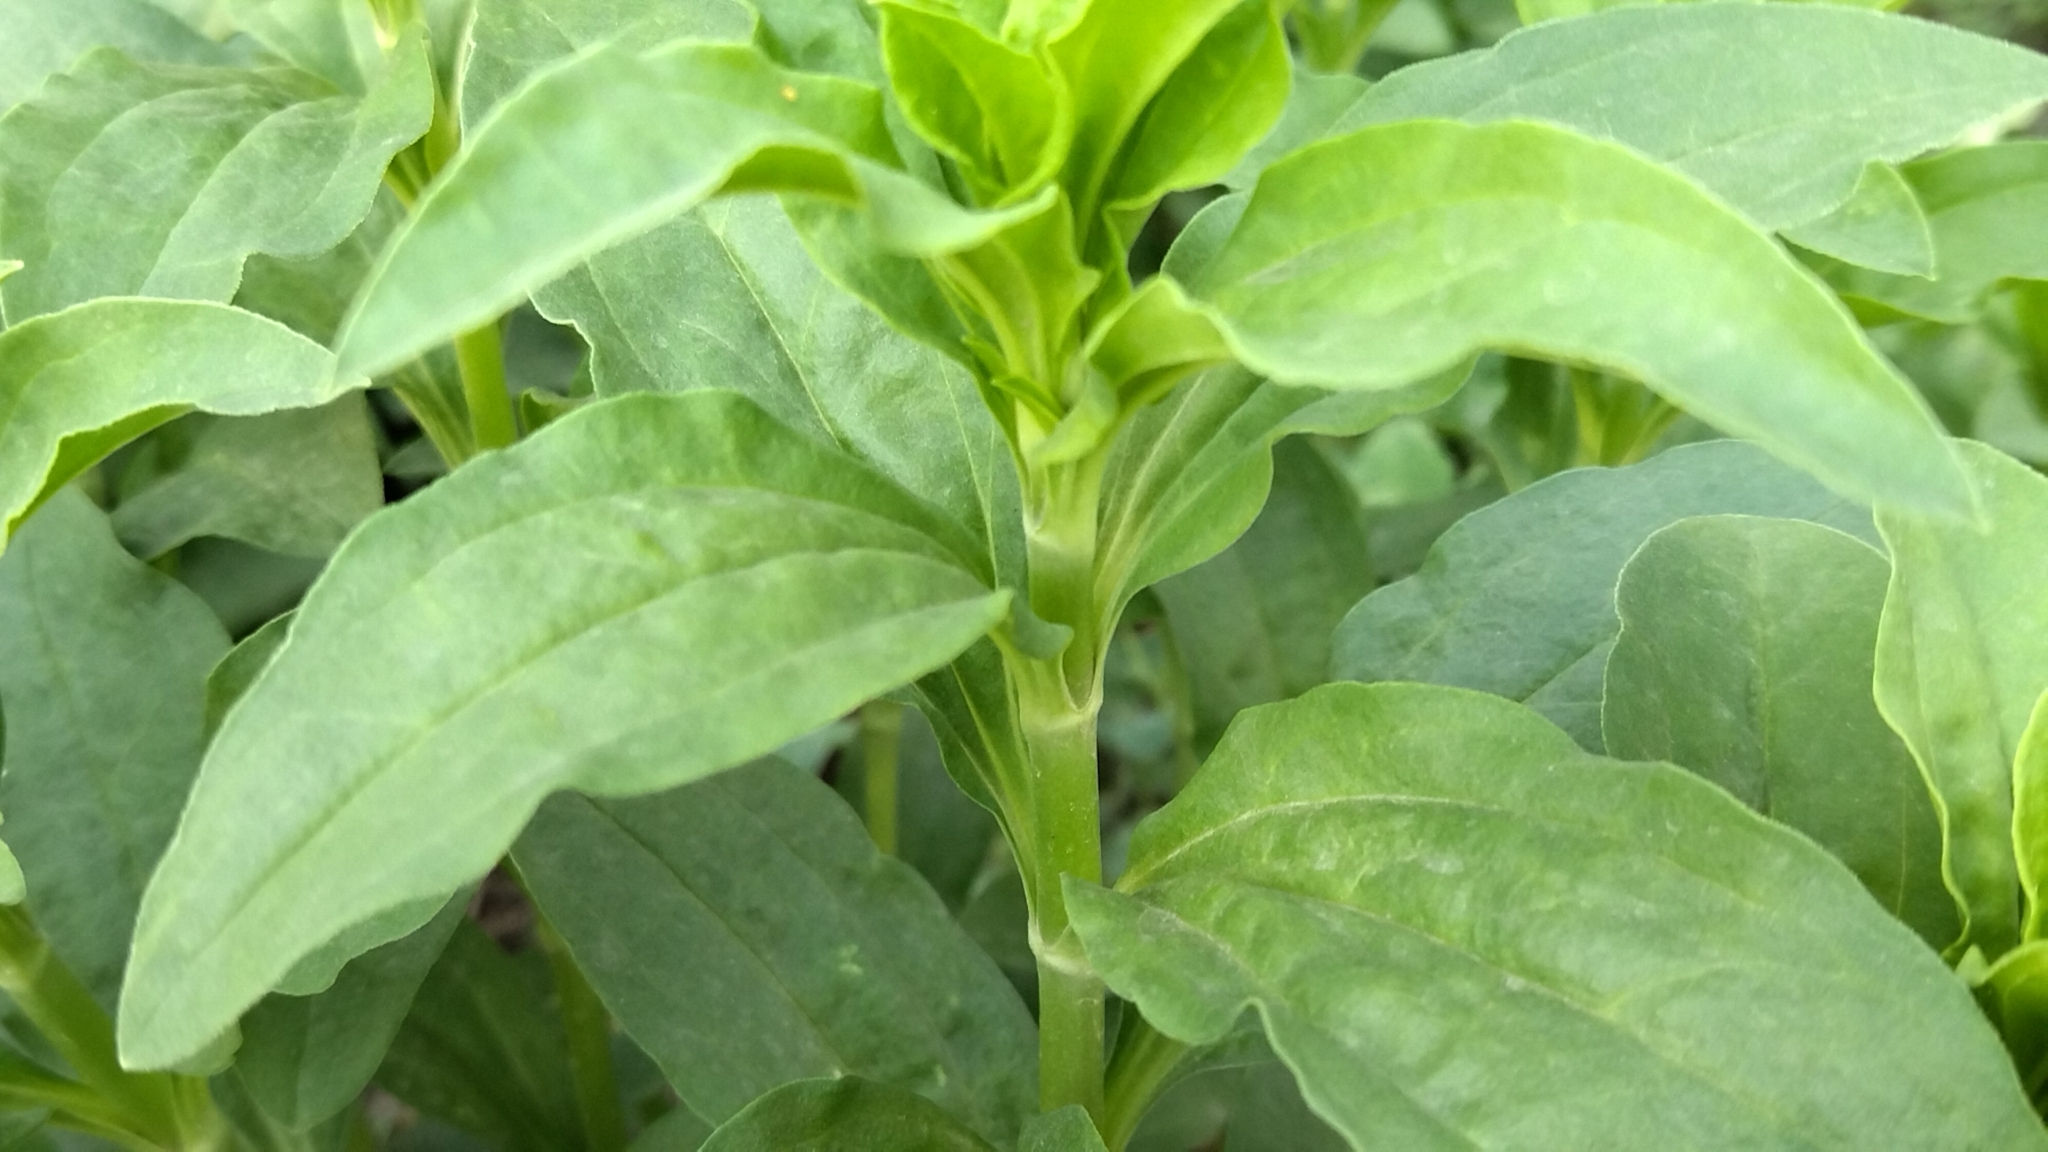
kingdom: Plantae
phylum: Tracheophyta
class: Magnoliopsida
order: Caryophyllales
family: Caryophyllaceae
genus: Saponaria
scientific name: Saponaria officinalis
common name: Soapwort
